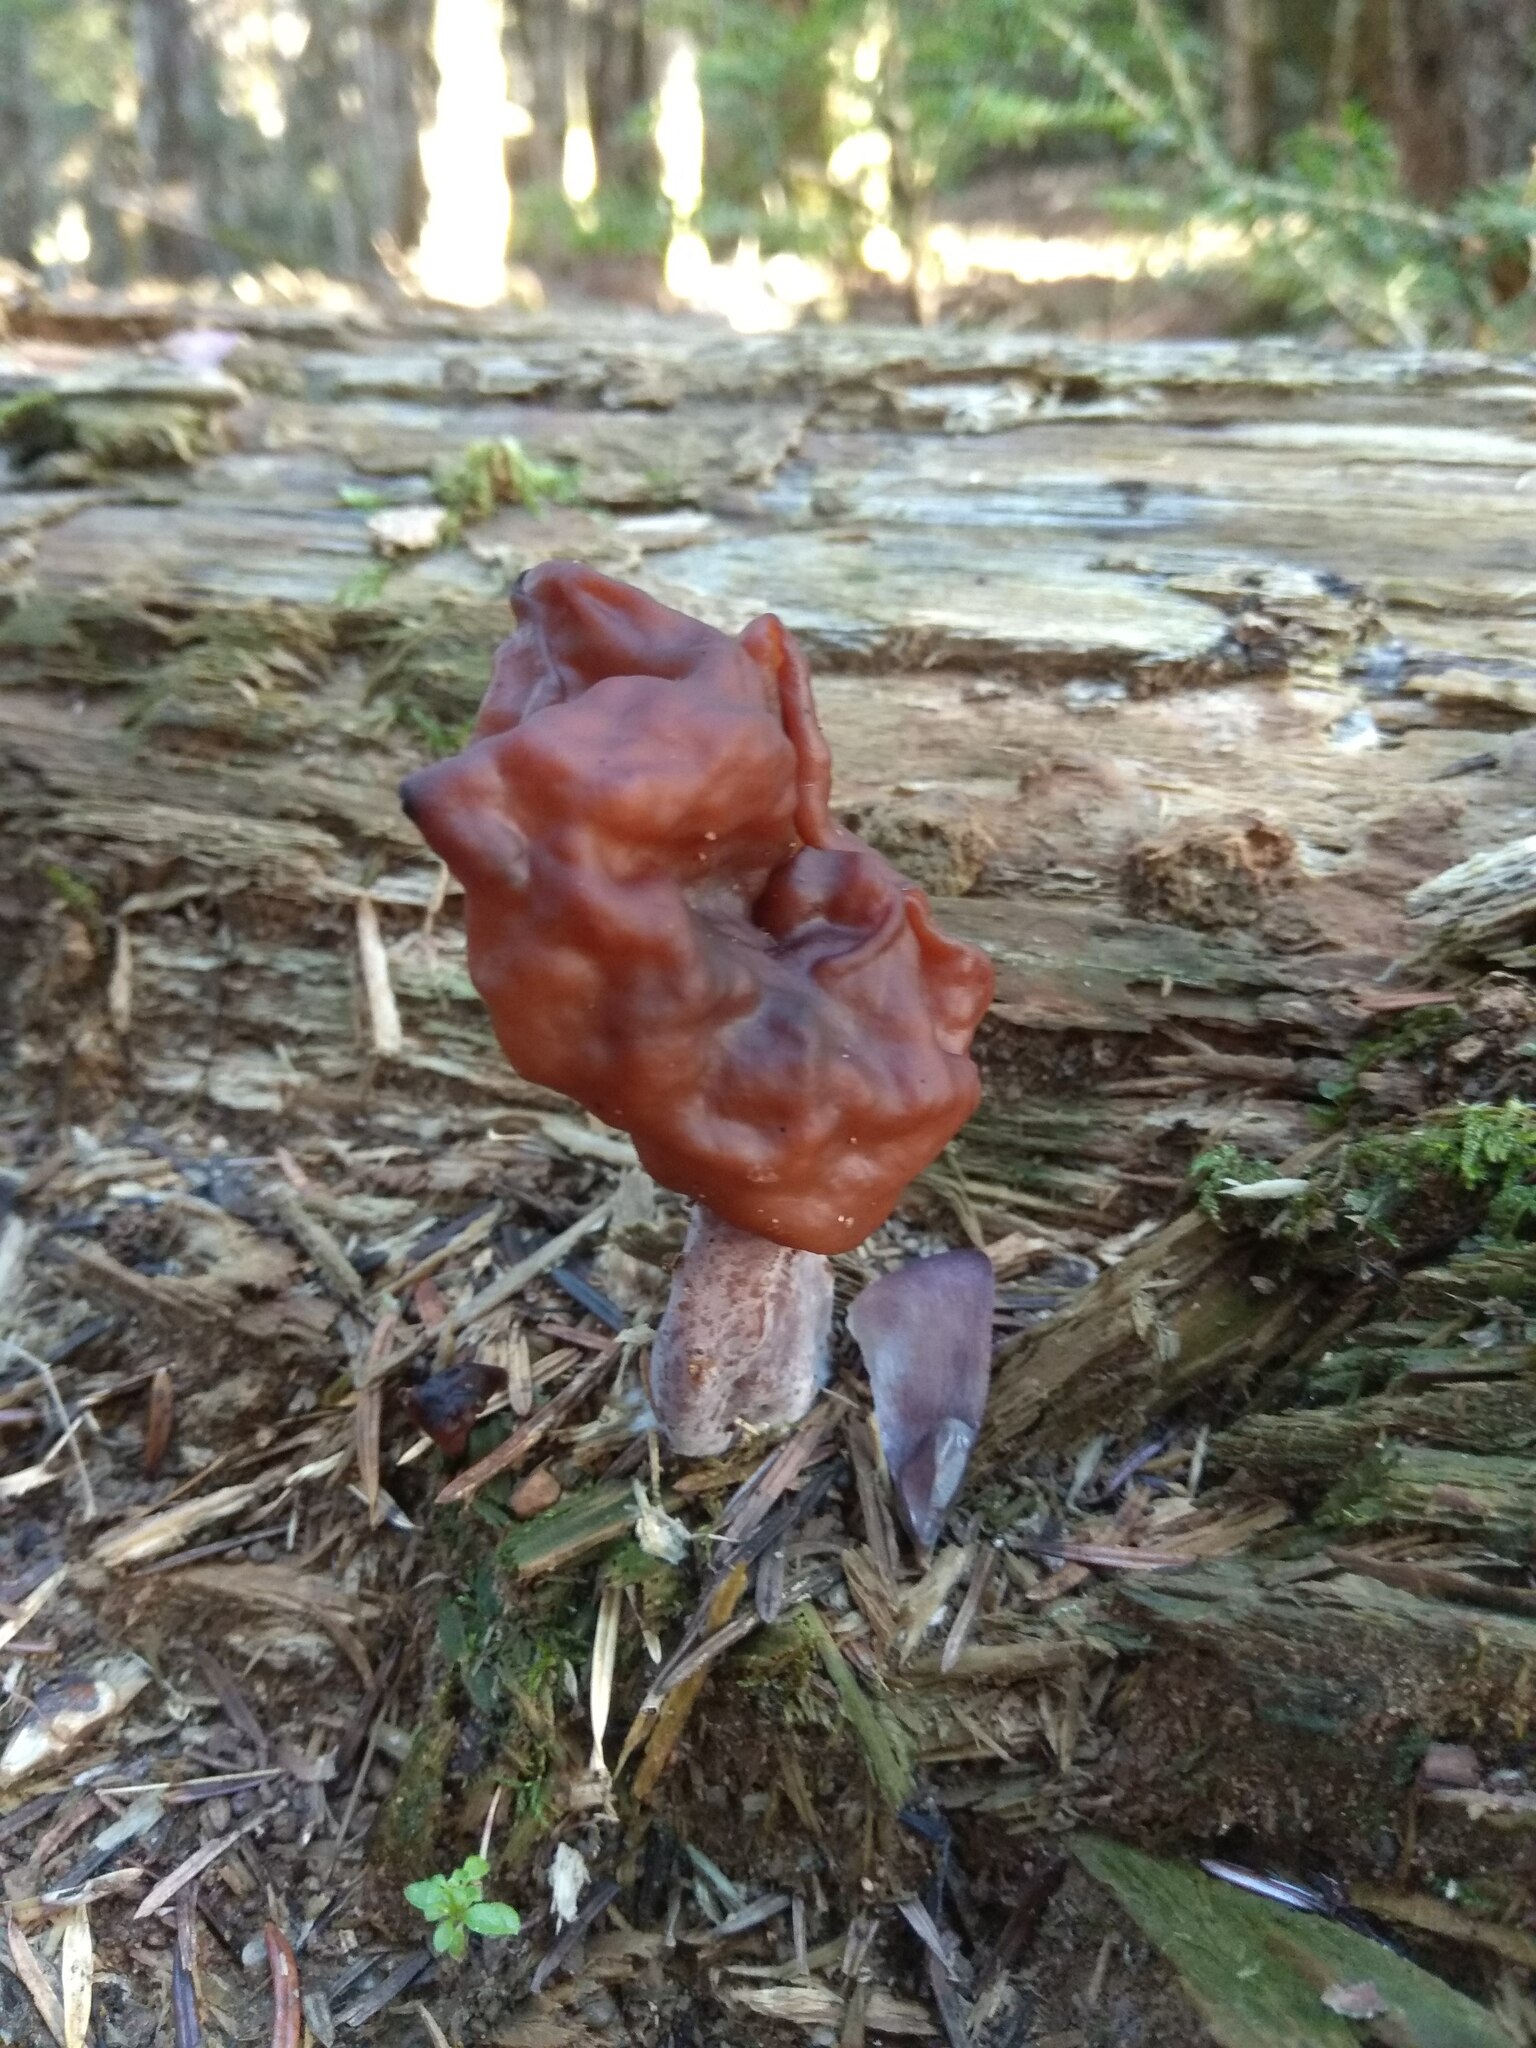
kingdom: Fungi
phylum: Ascomycota
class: Pezizomycetes
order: Pezizales
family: Discinaceae
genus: Gyromitra
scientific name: Gyromitra infula
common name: Pouched false morel
